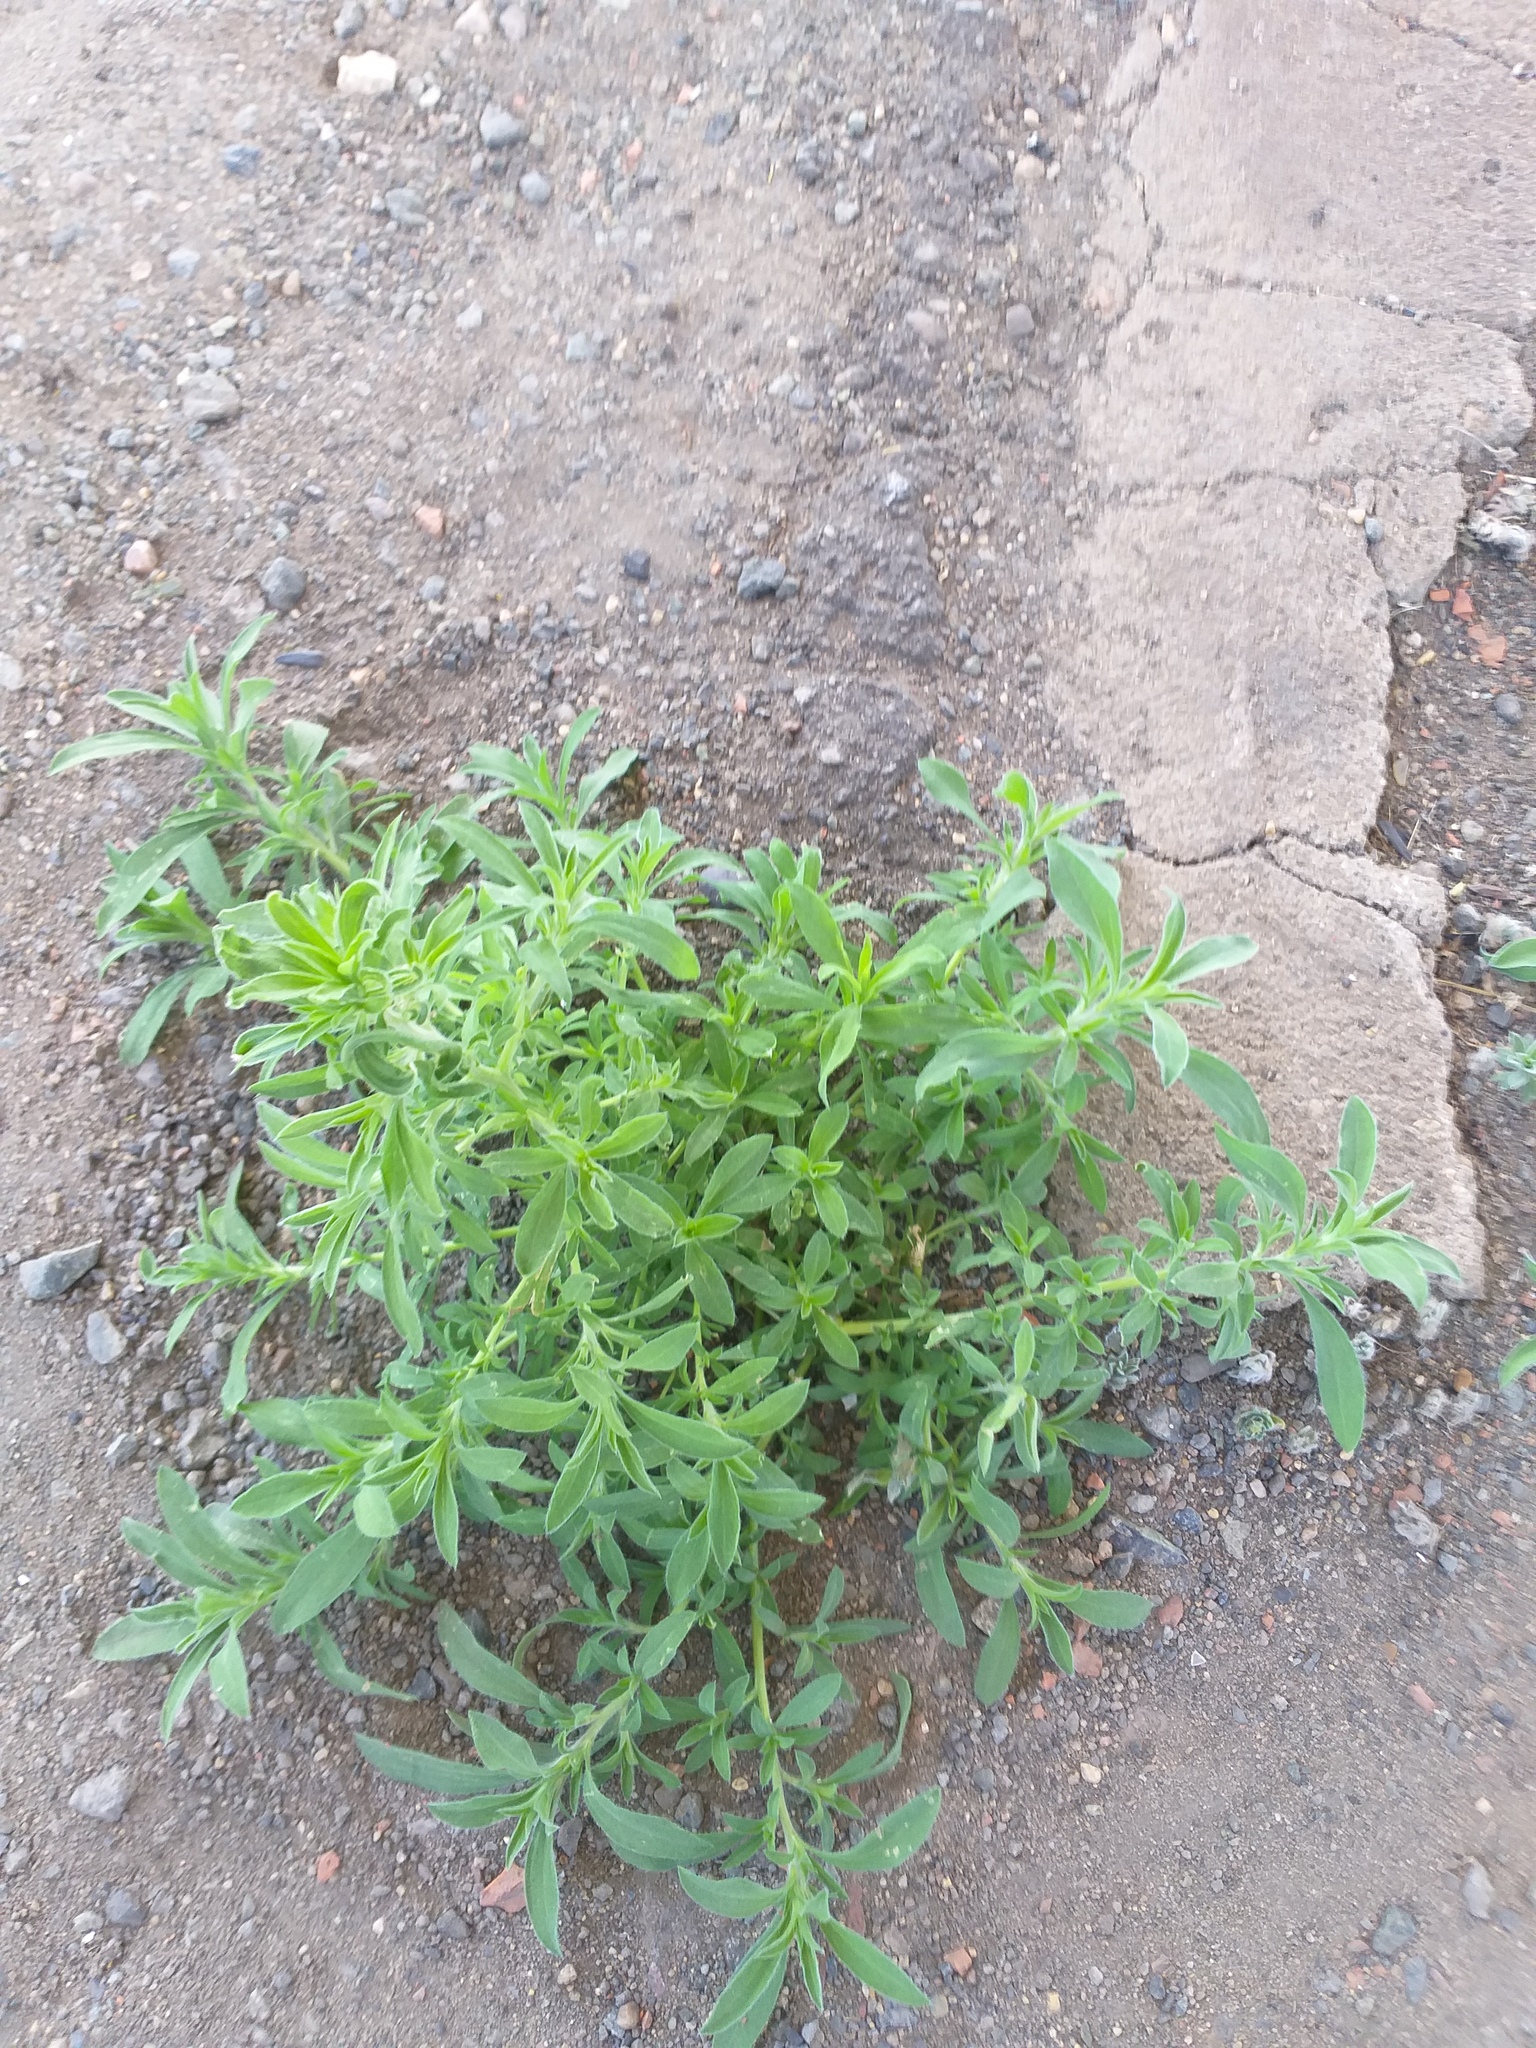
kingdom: Plantae
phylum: Tracheophyta
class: Magnoliopsida
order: Caryophyllales
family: Amaranthaceae
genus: Bassia
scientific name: Bassia scoparia
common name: Belvedere
